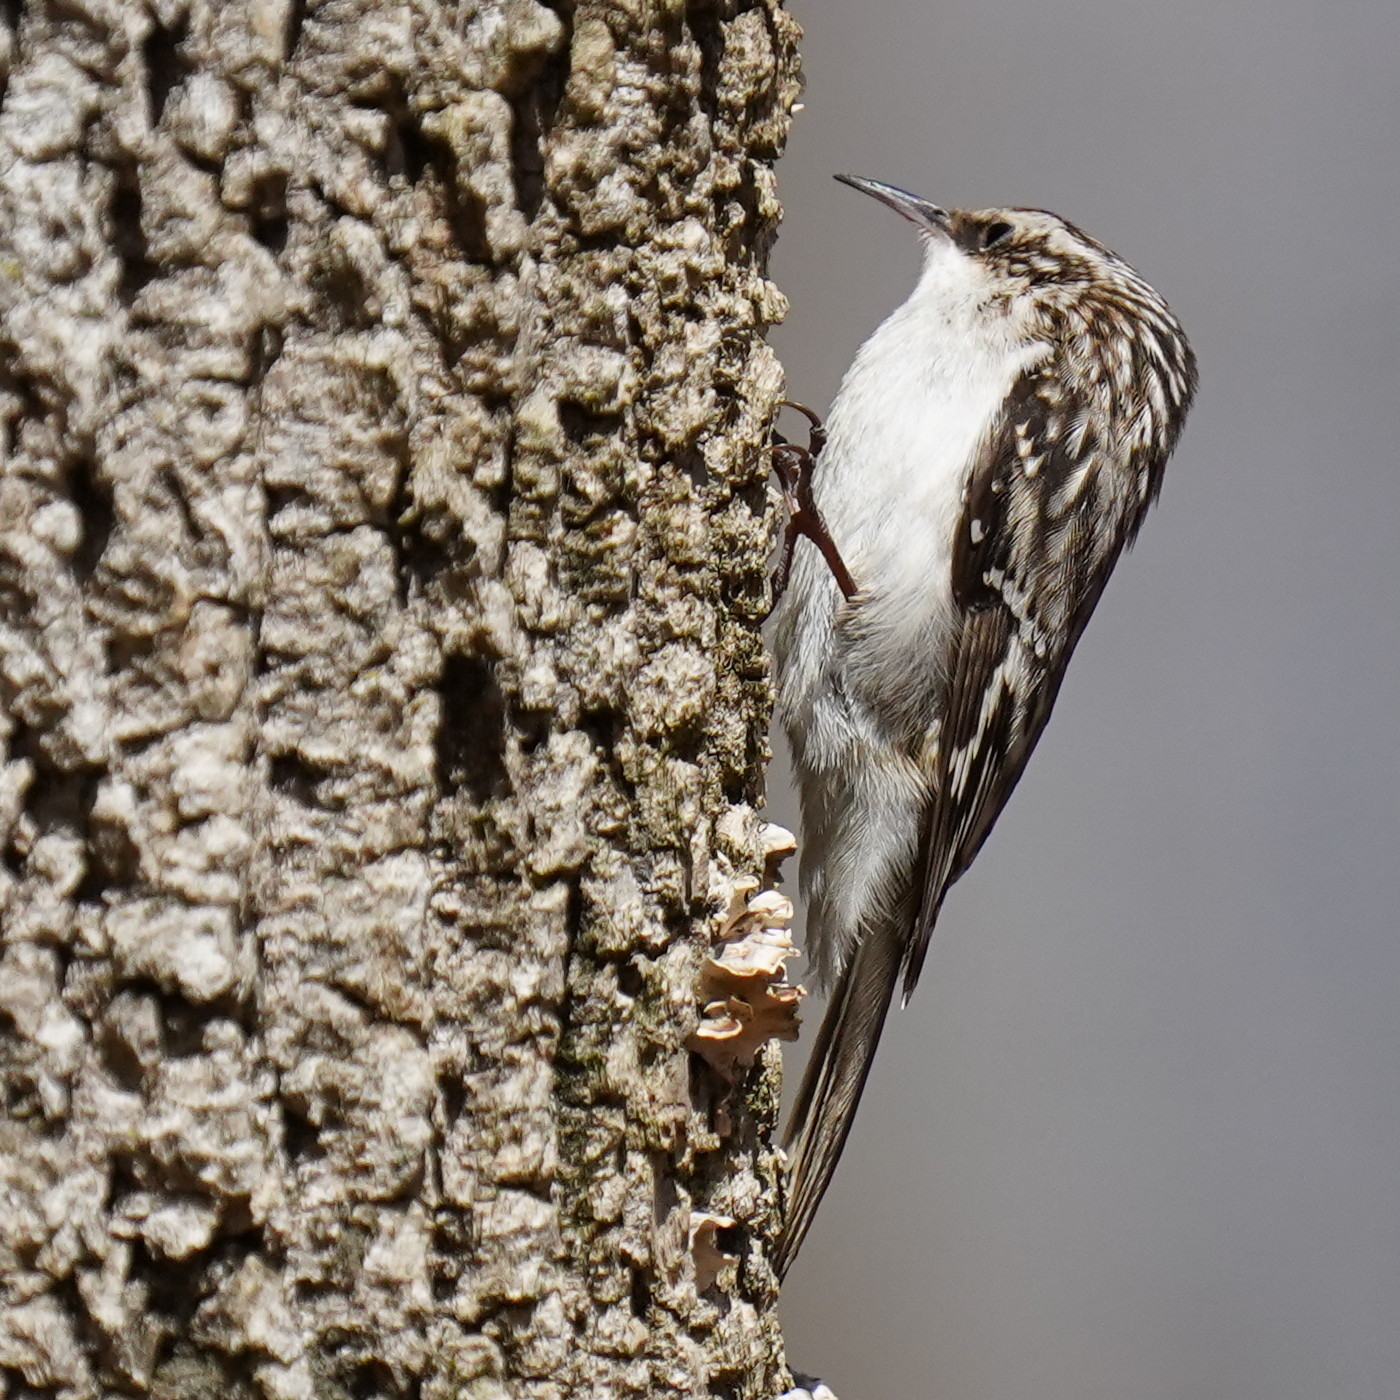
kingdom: Animalia
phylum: Chordata
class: Aves
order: Passeriformes
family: Certhiidae
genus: Certhia
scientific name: Certhia americana
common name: Brown creeper
